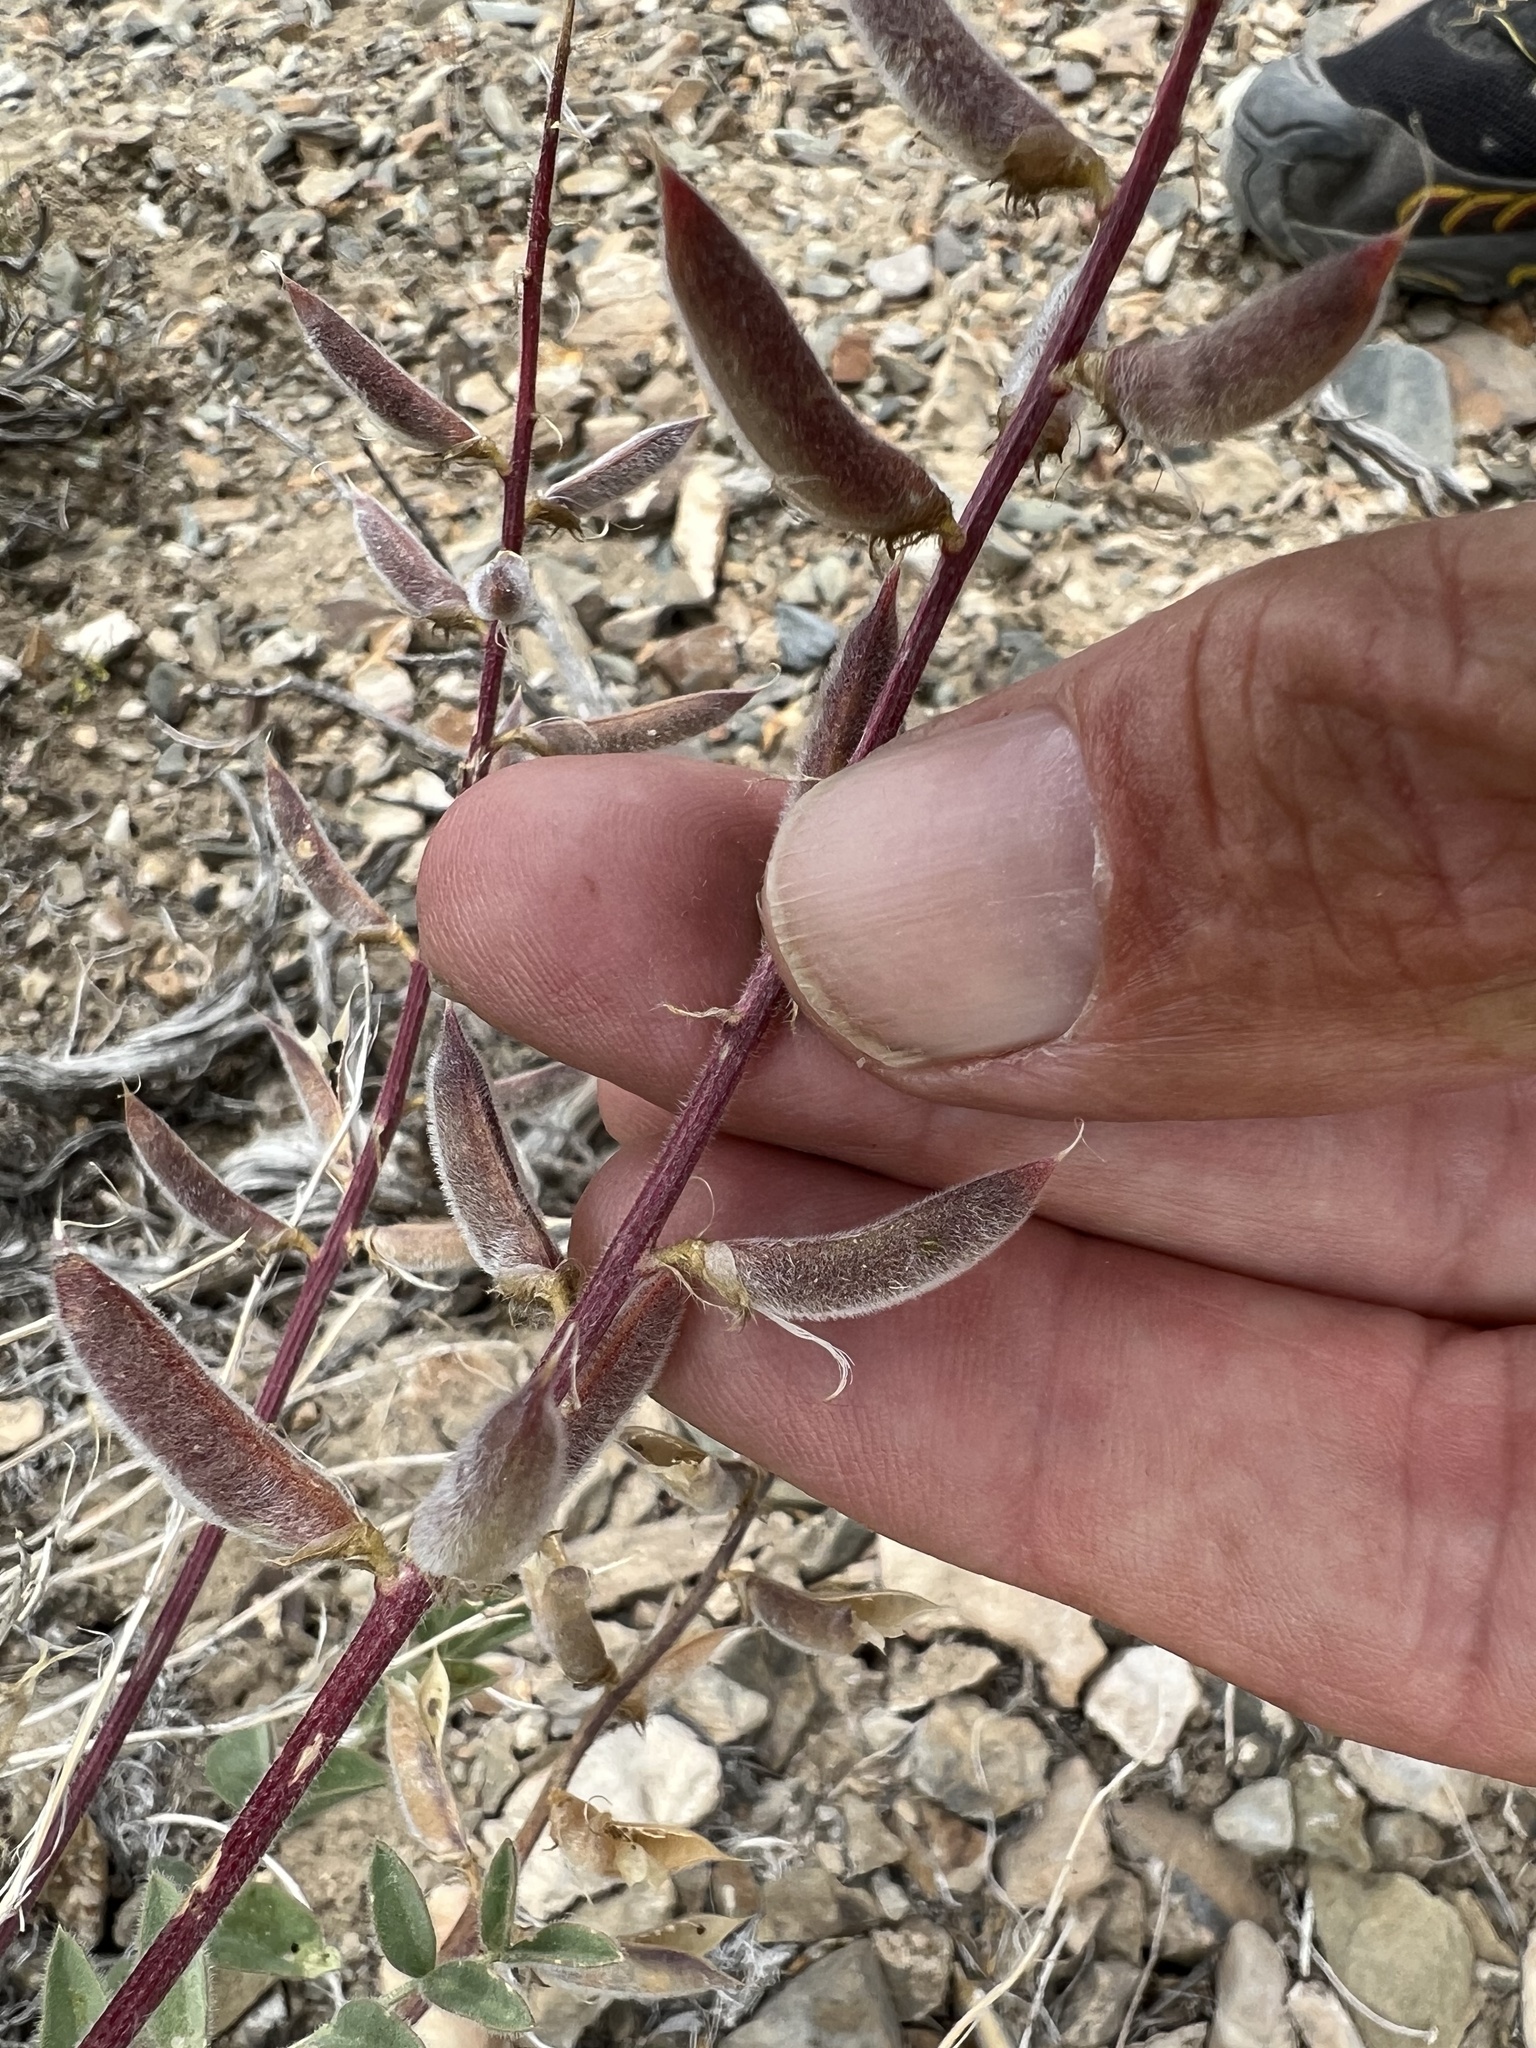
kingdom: Plantae
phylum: Tracheophyta
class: Magnoliopsida
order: Fabales
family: Fabaceae
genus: Astragalus
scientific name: Astragalus minthorniae
